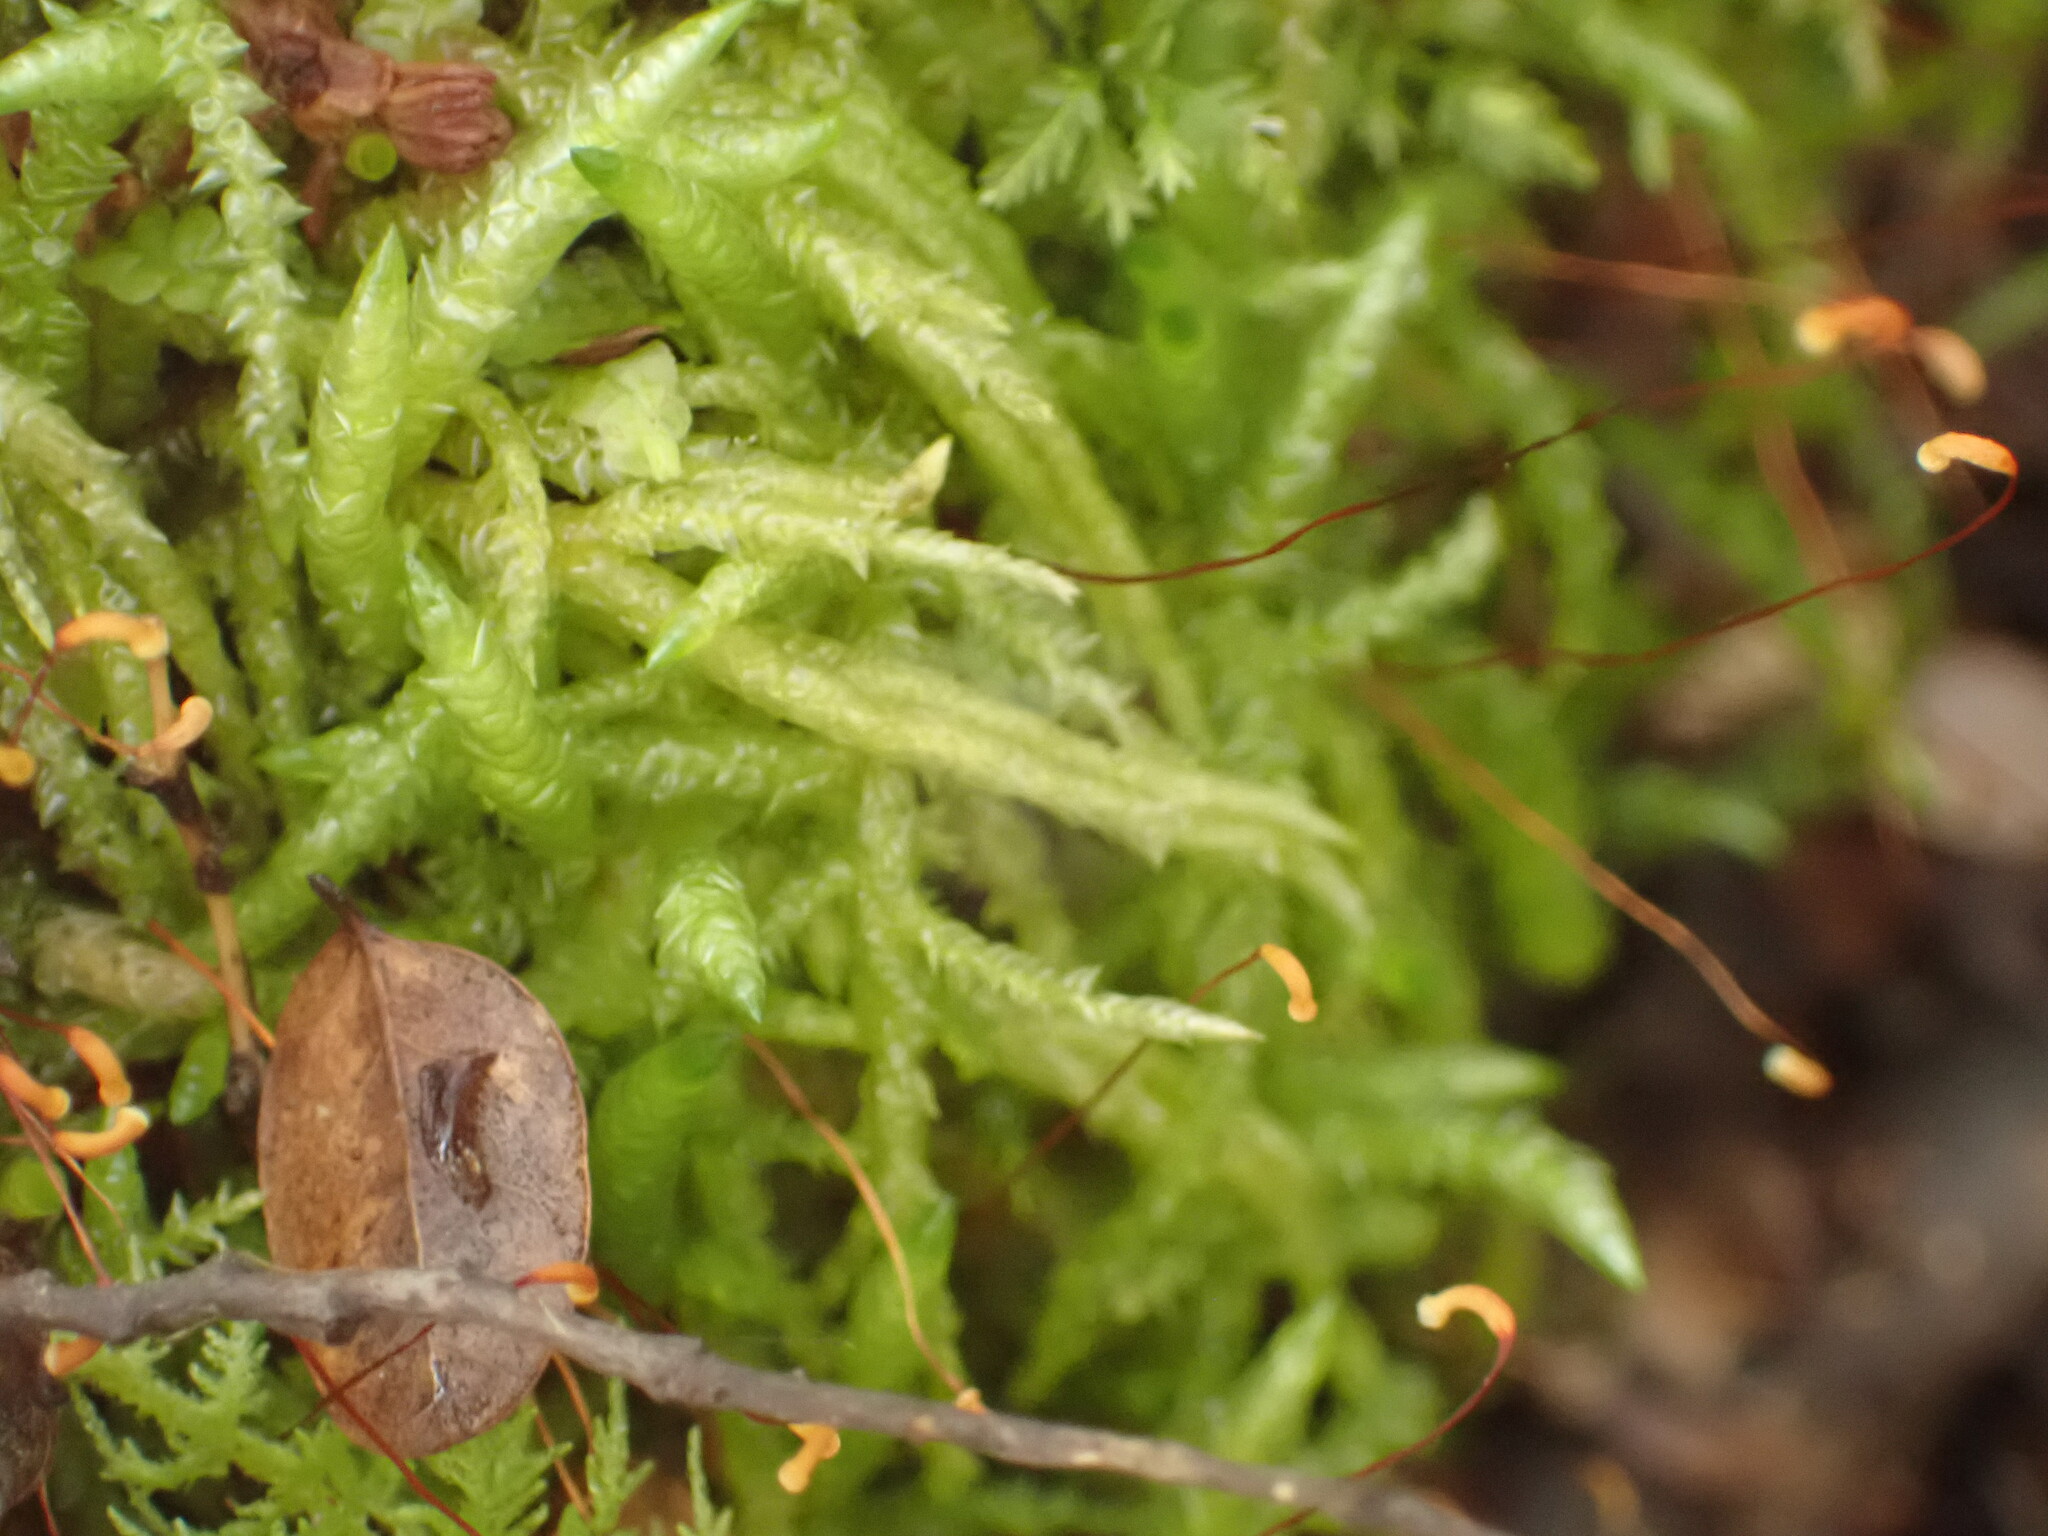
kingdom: Plantae
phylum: Bryophyta
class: Bryopsida
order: Hypnales
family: Acrocladiaceae
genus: Acrocladium
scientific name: Acrocladium chlamydophyllum
